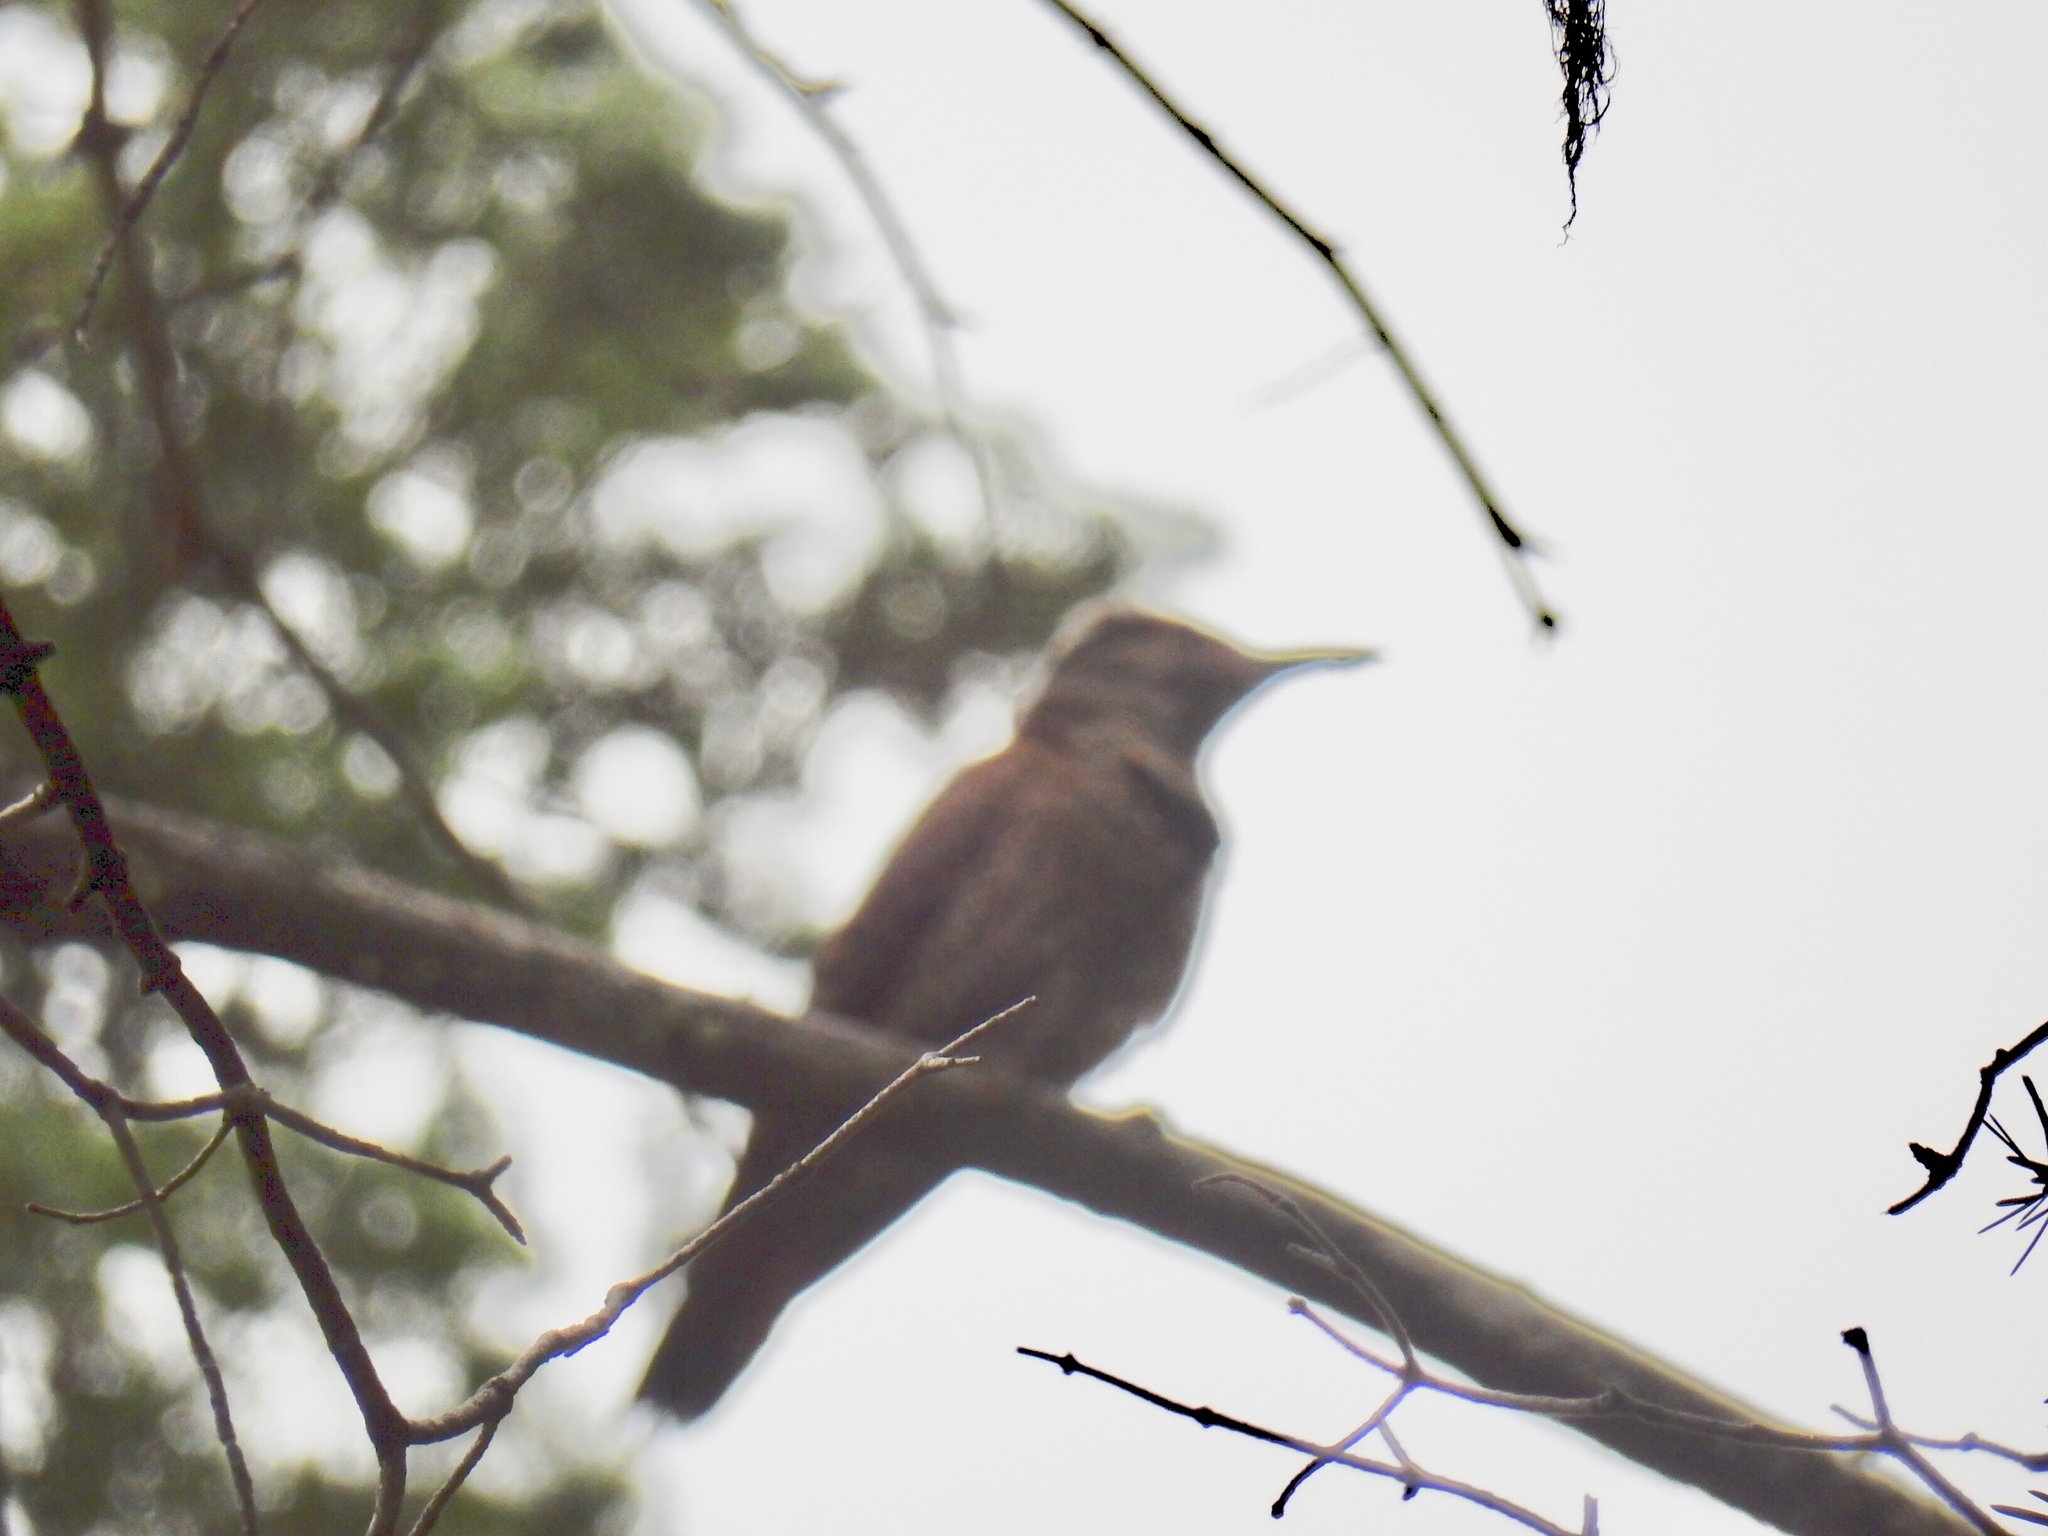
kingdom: Animalia
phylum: Chordata
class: Aves
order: Piciformes
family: Picidae
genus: Colaptes
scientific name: Colaptes auratus
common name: Northern flicker
